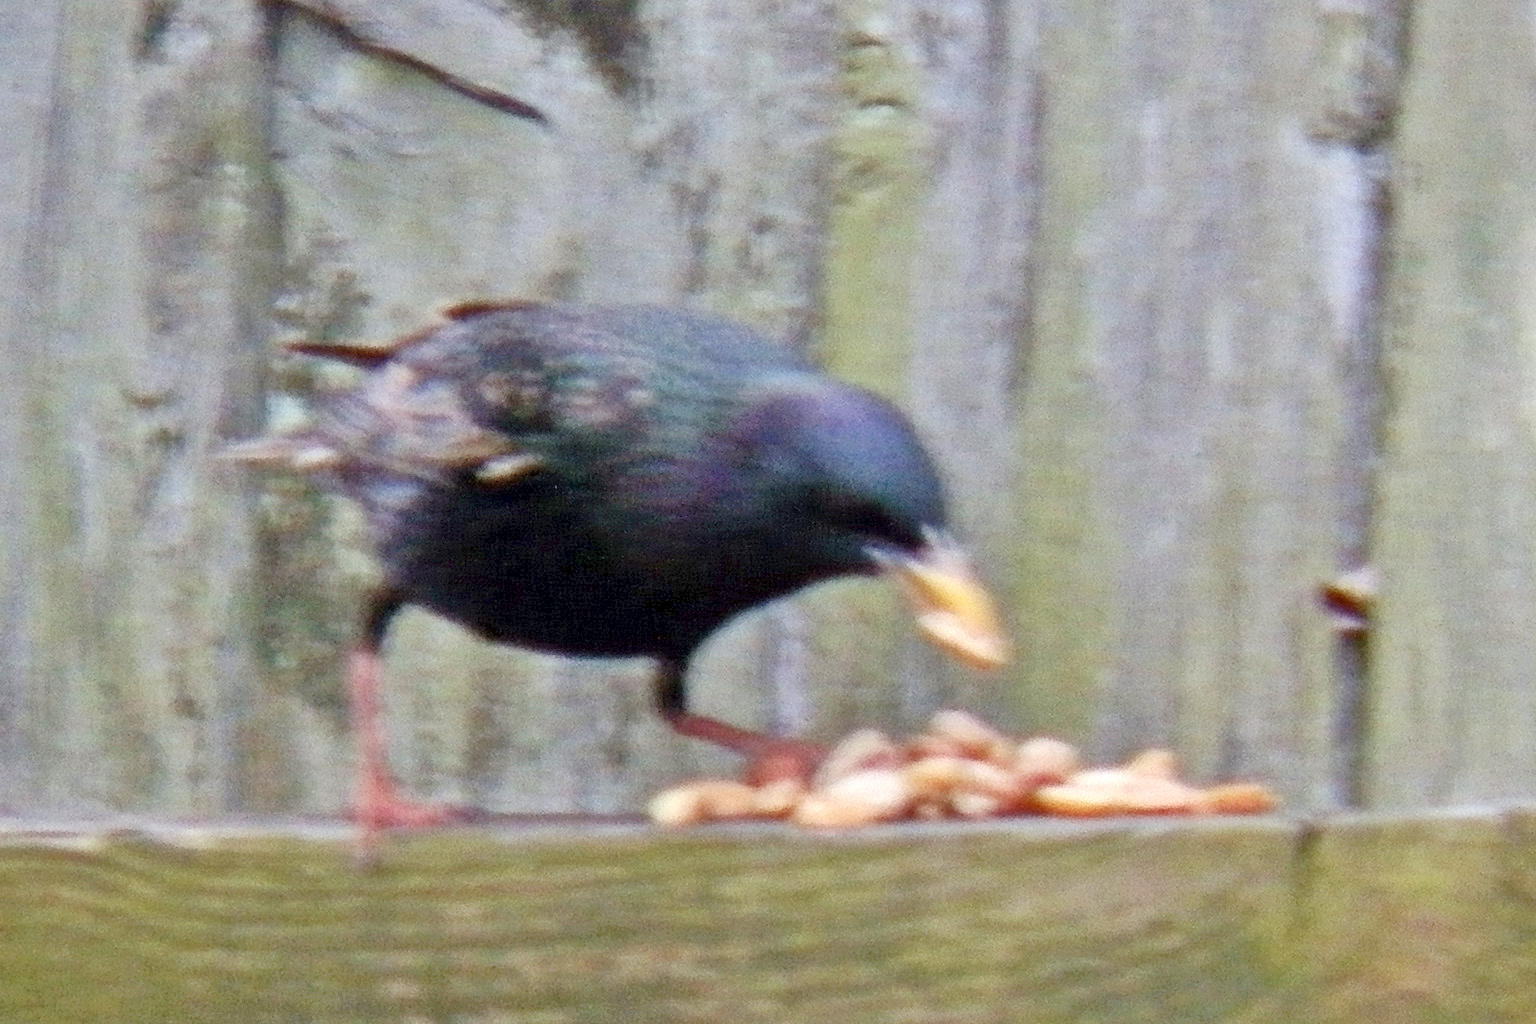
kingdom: Animalia
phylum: Chordata
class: Aves
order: Passeriformes
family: Sturnidae
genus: Sturnus
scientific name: Sturnus vulgaris
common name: Common starling
